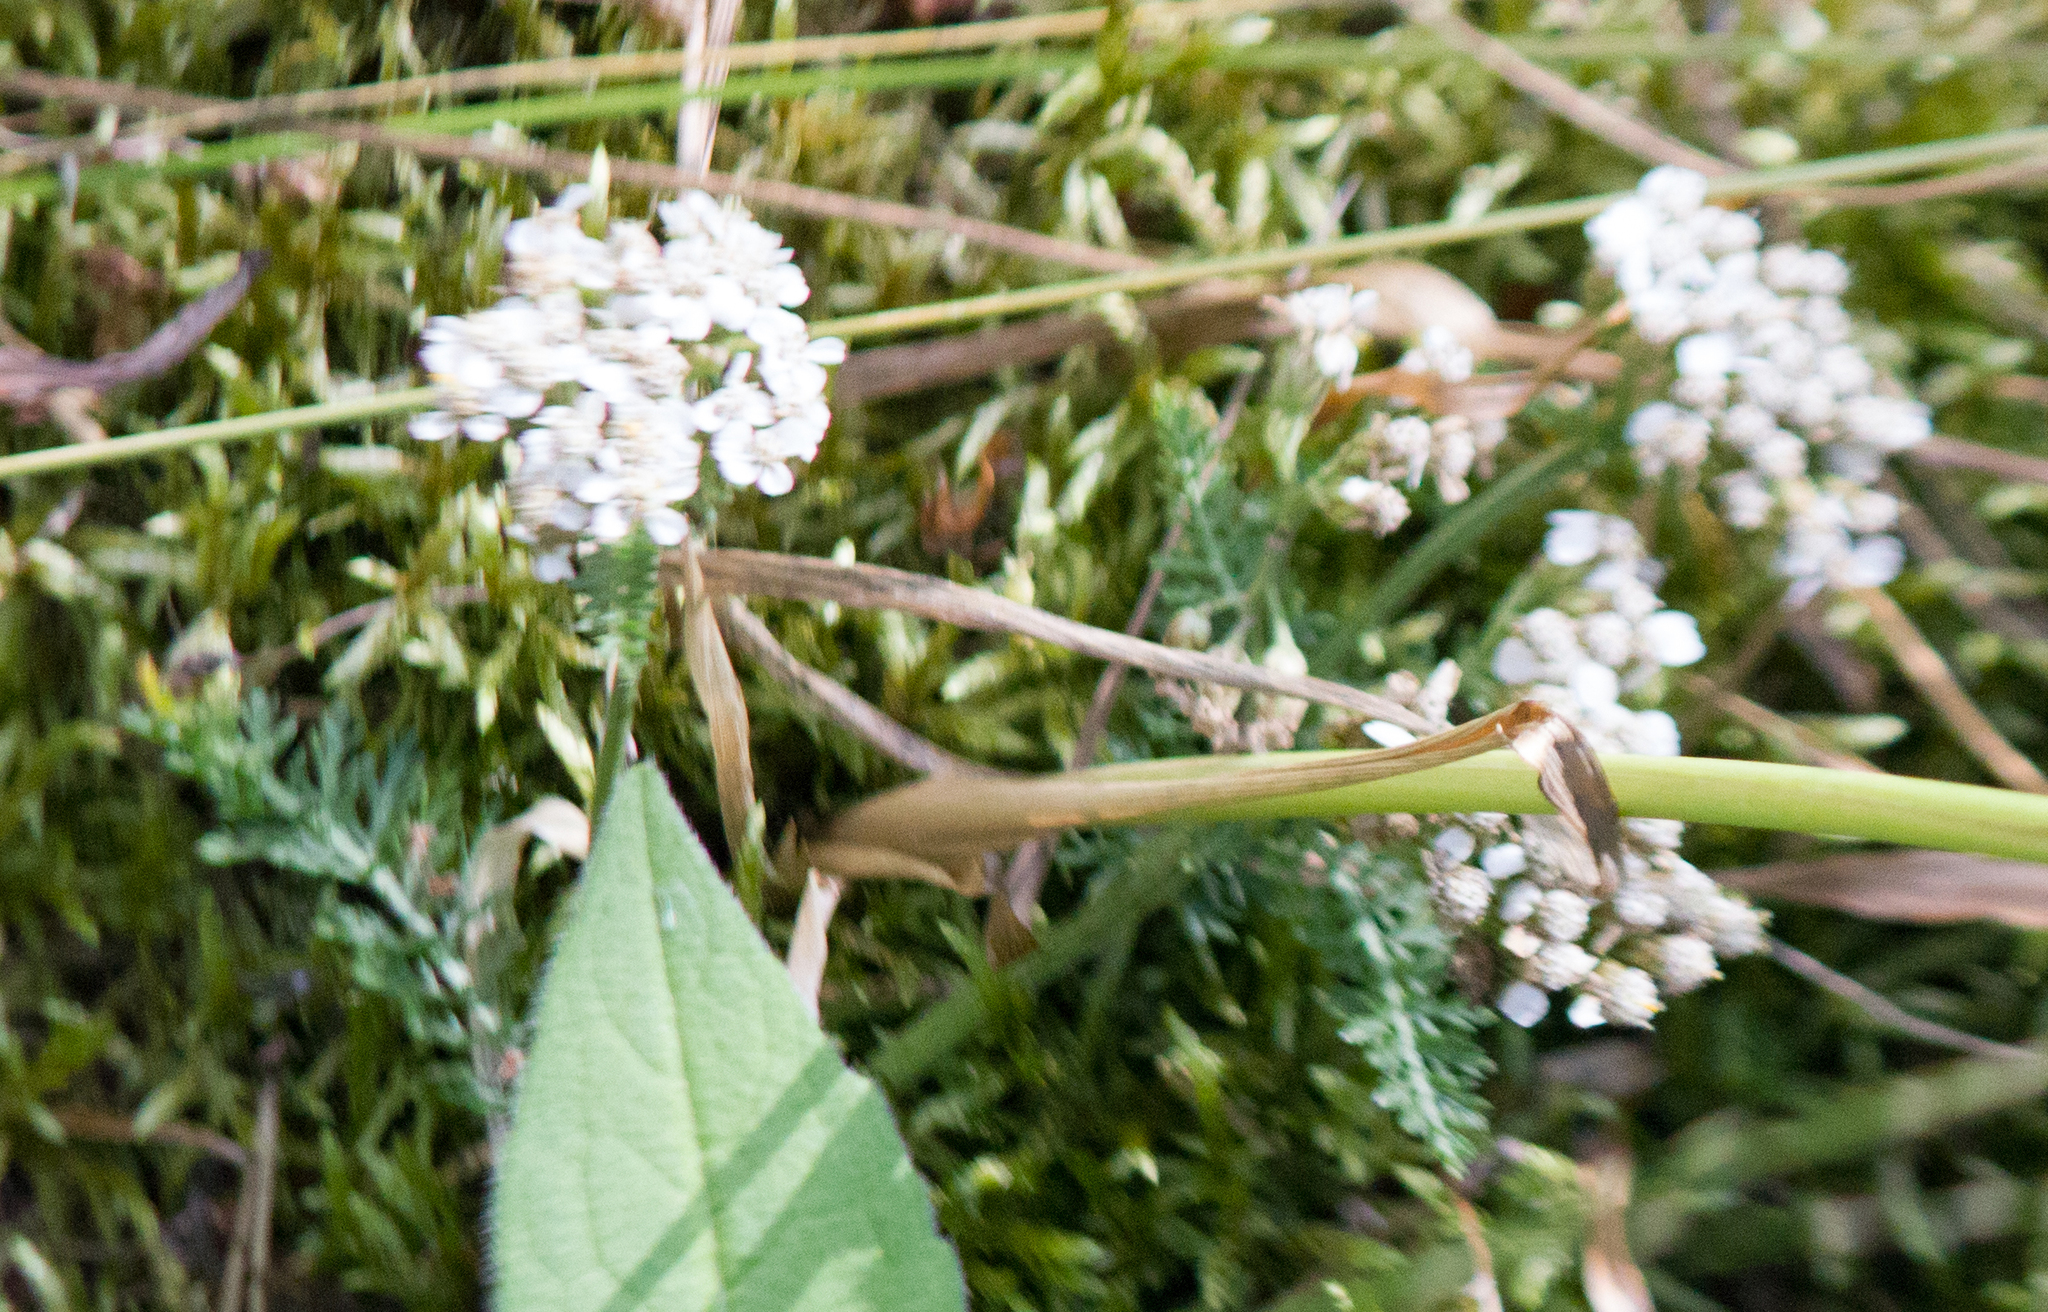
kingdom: Plantae
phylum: Tracheophyta
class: Magnoliopsida
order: Asterales
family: Asteraceae
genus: Achillea
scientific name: Achillea millefolium
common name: Yarrow
